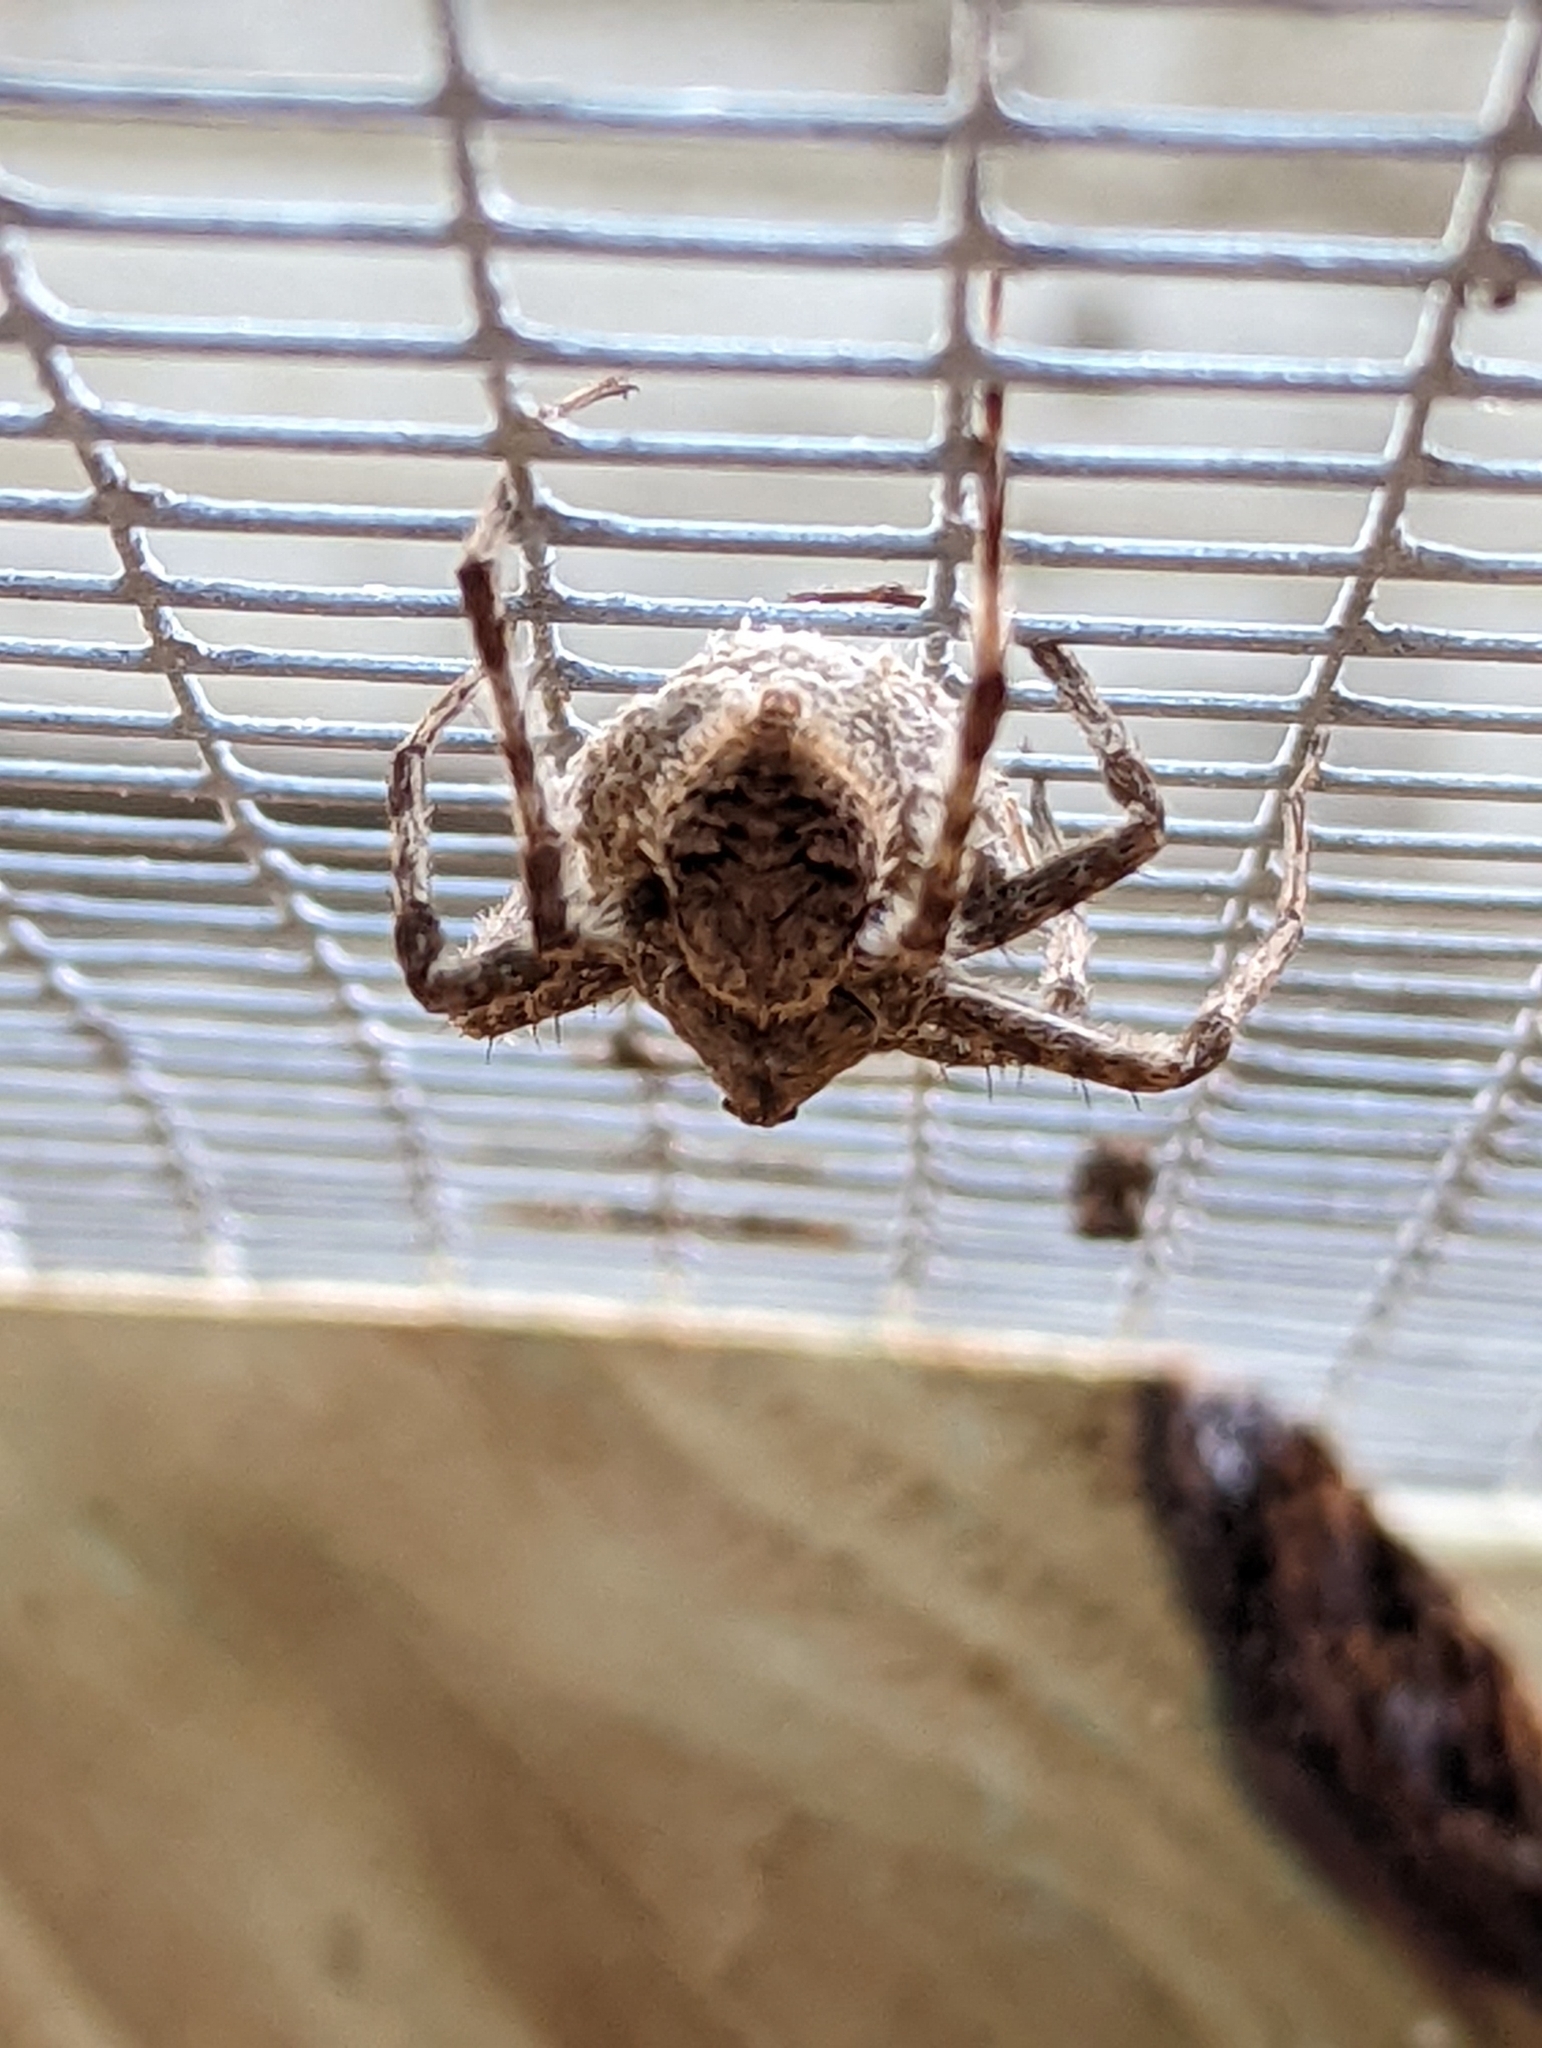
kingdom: Animalia
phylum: Arthropoda
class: Arachnida
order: Araneae
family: Pisauridae
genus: Dolomedes
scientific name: Dolomedes albineus
